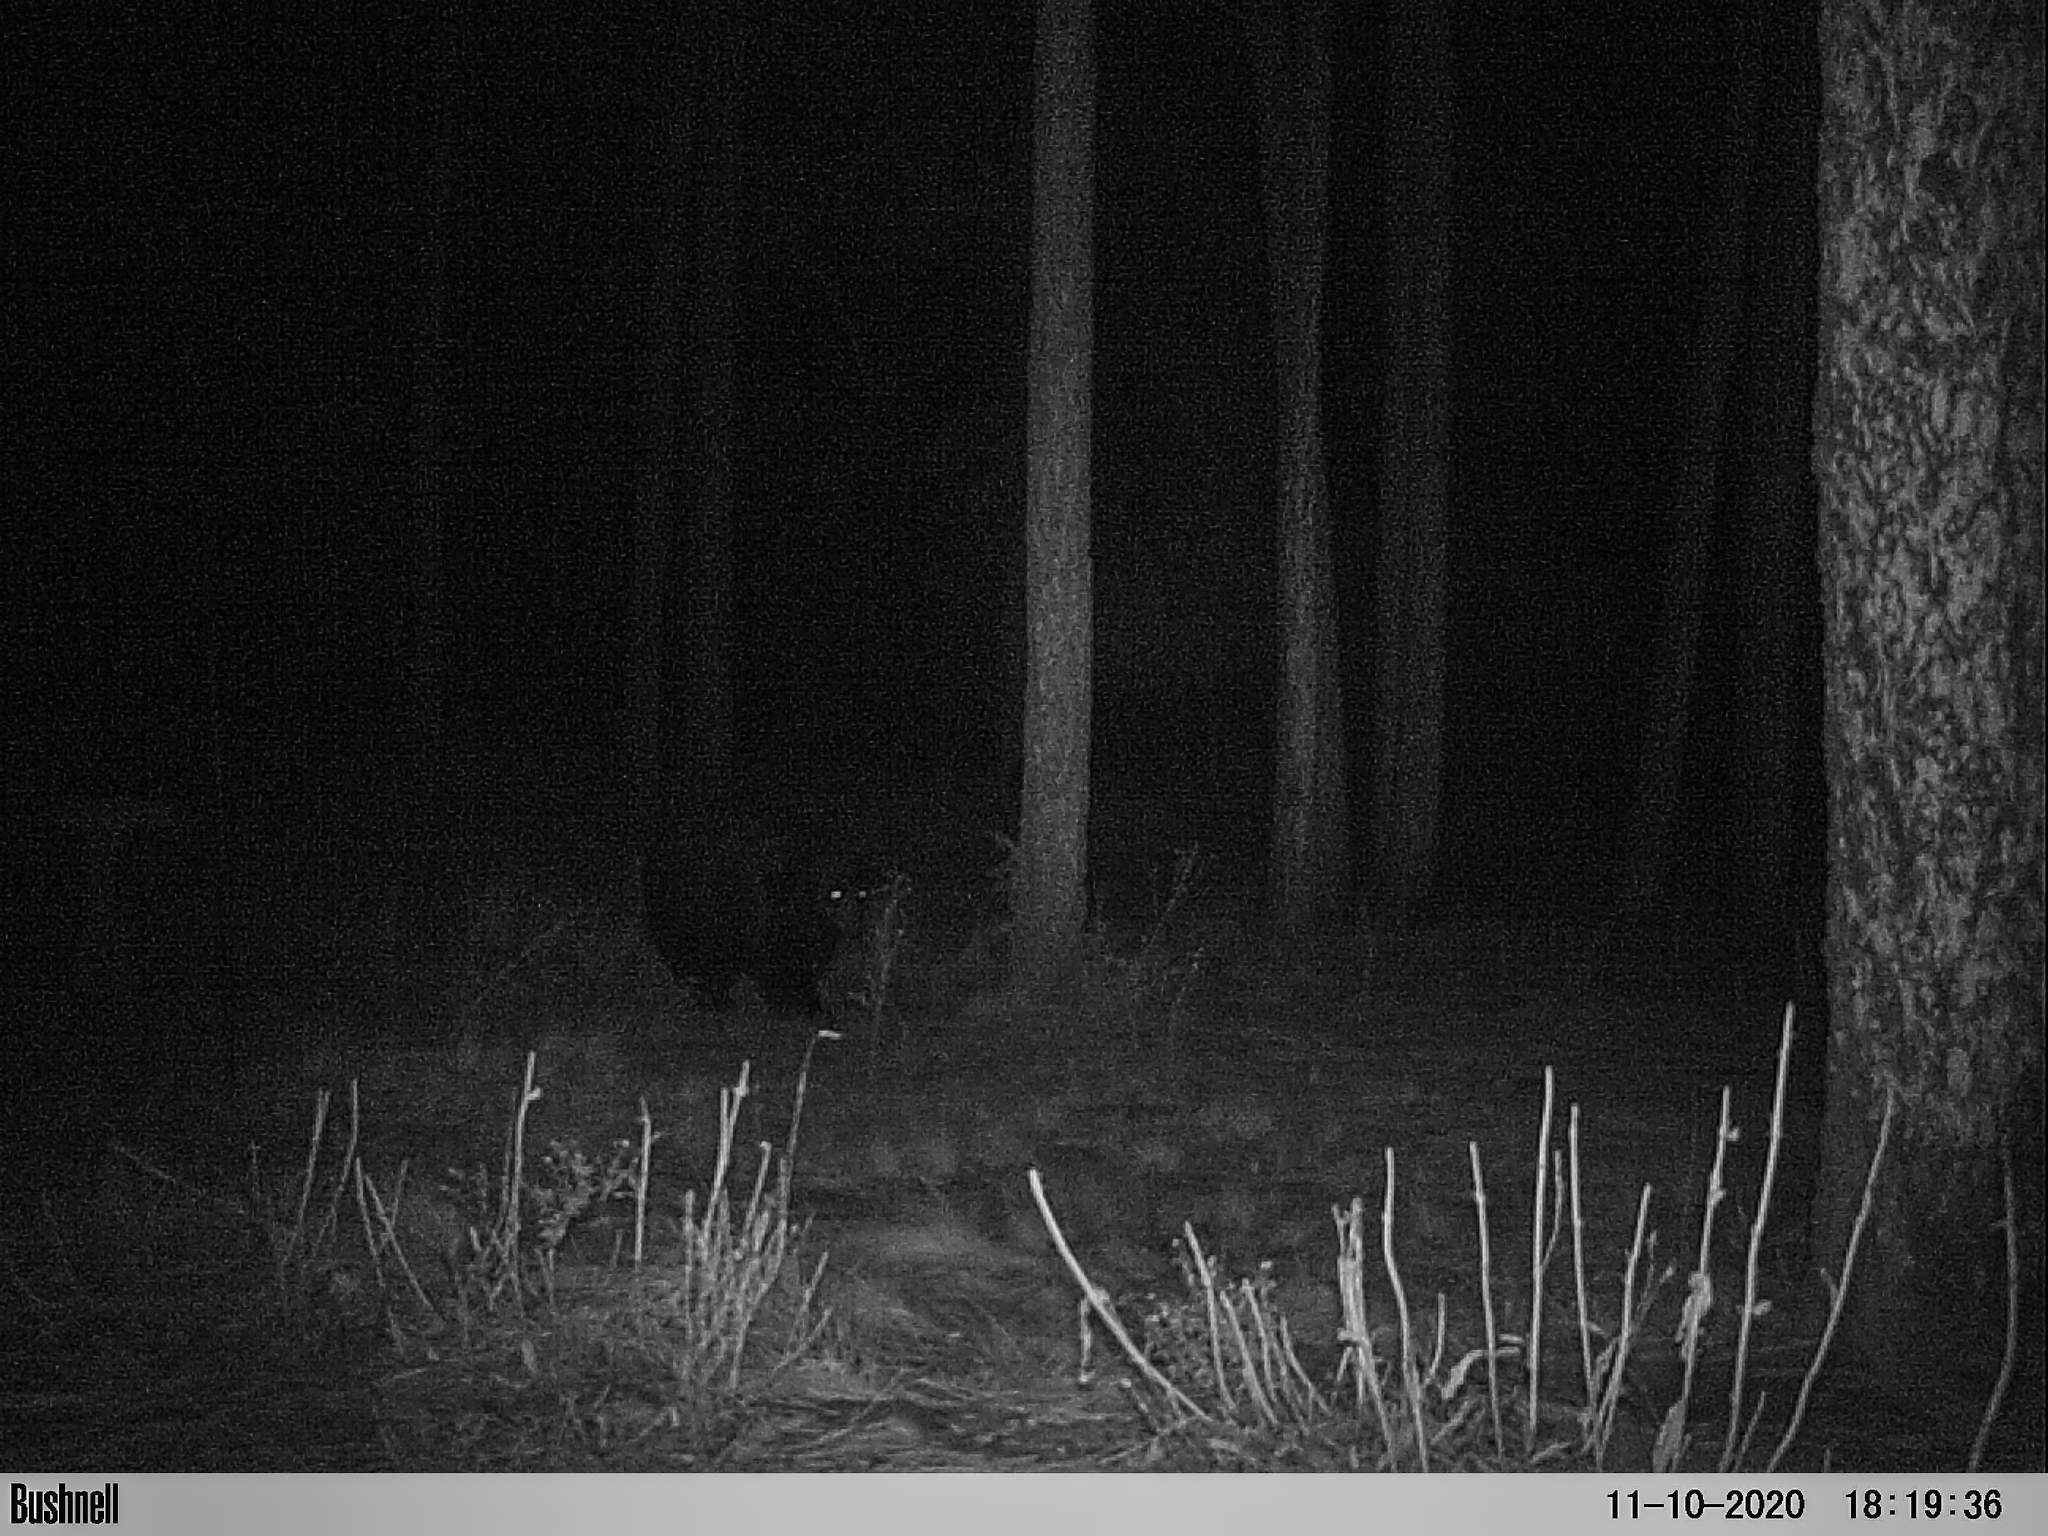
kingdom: Animalia
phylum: Chordata
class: Mammalia
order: Carnivora
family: Ursidae
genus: Ursus
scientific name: Ursus americanus
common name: American black bear
